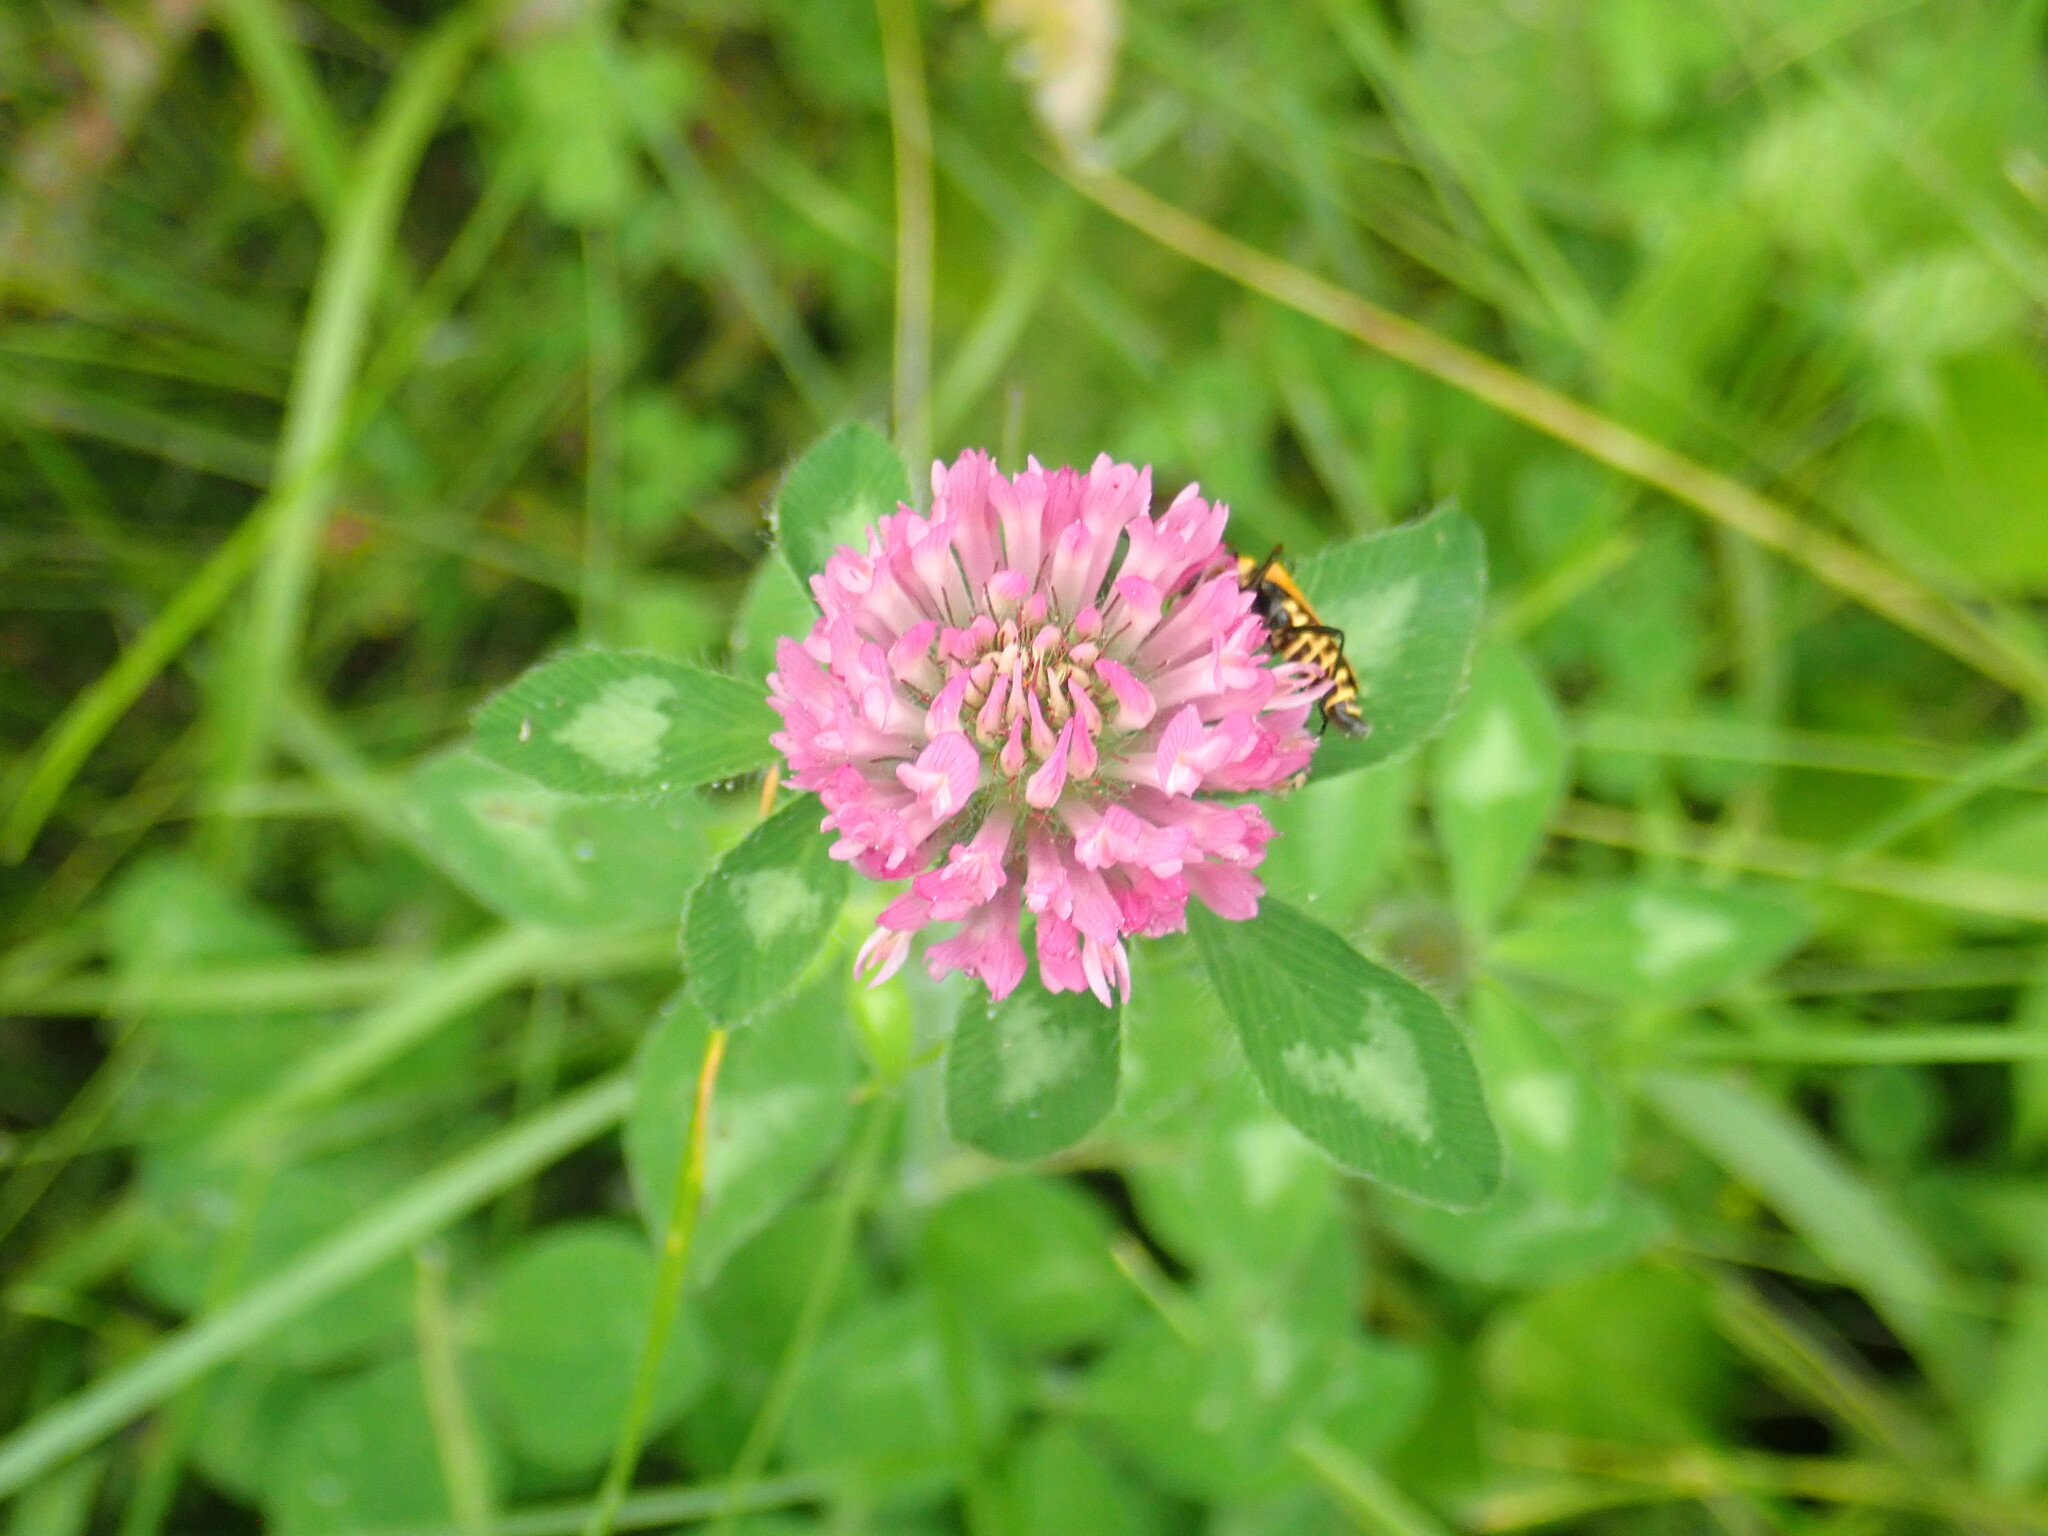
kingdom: Plantae
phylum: Tracheophyta
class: Magnoliopsida
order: Fabales
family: Fabaceae
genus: Trifolium
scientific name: Trifolium pratense
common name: Red clover
